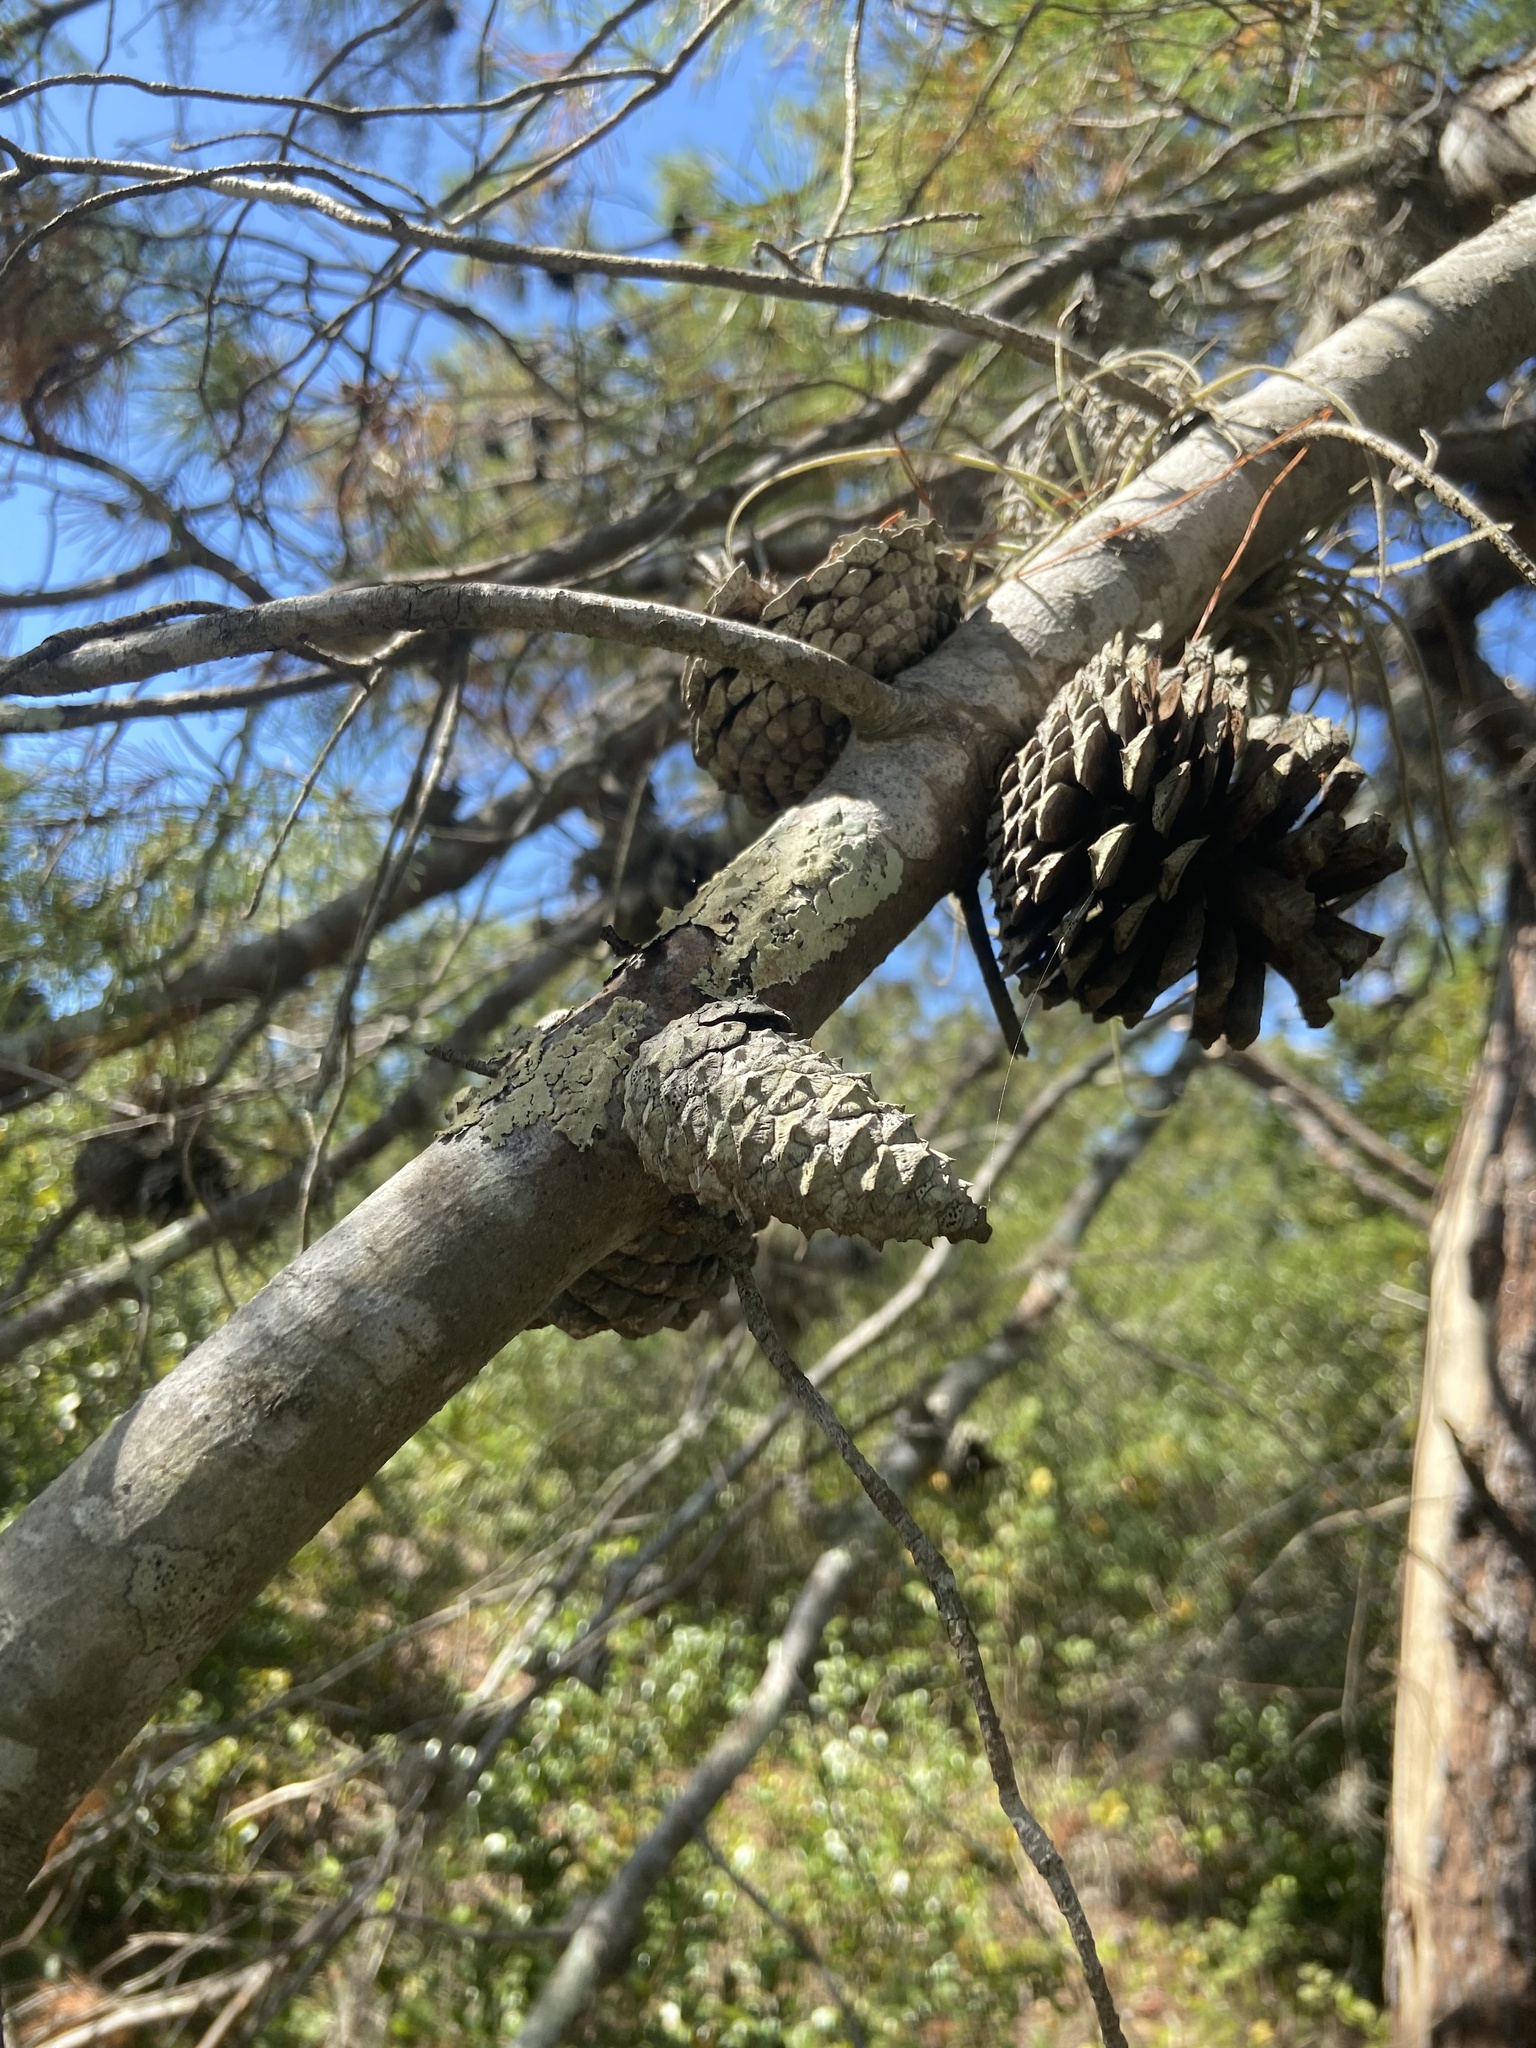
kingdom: Plantae
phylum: Tracheophyta
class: Pinopsida
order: Pinales
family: Pinaceae
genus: Pinus
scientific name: Pinus clausa
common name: Sand pine
